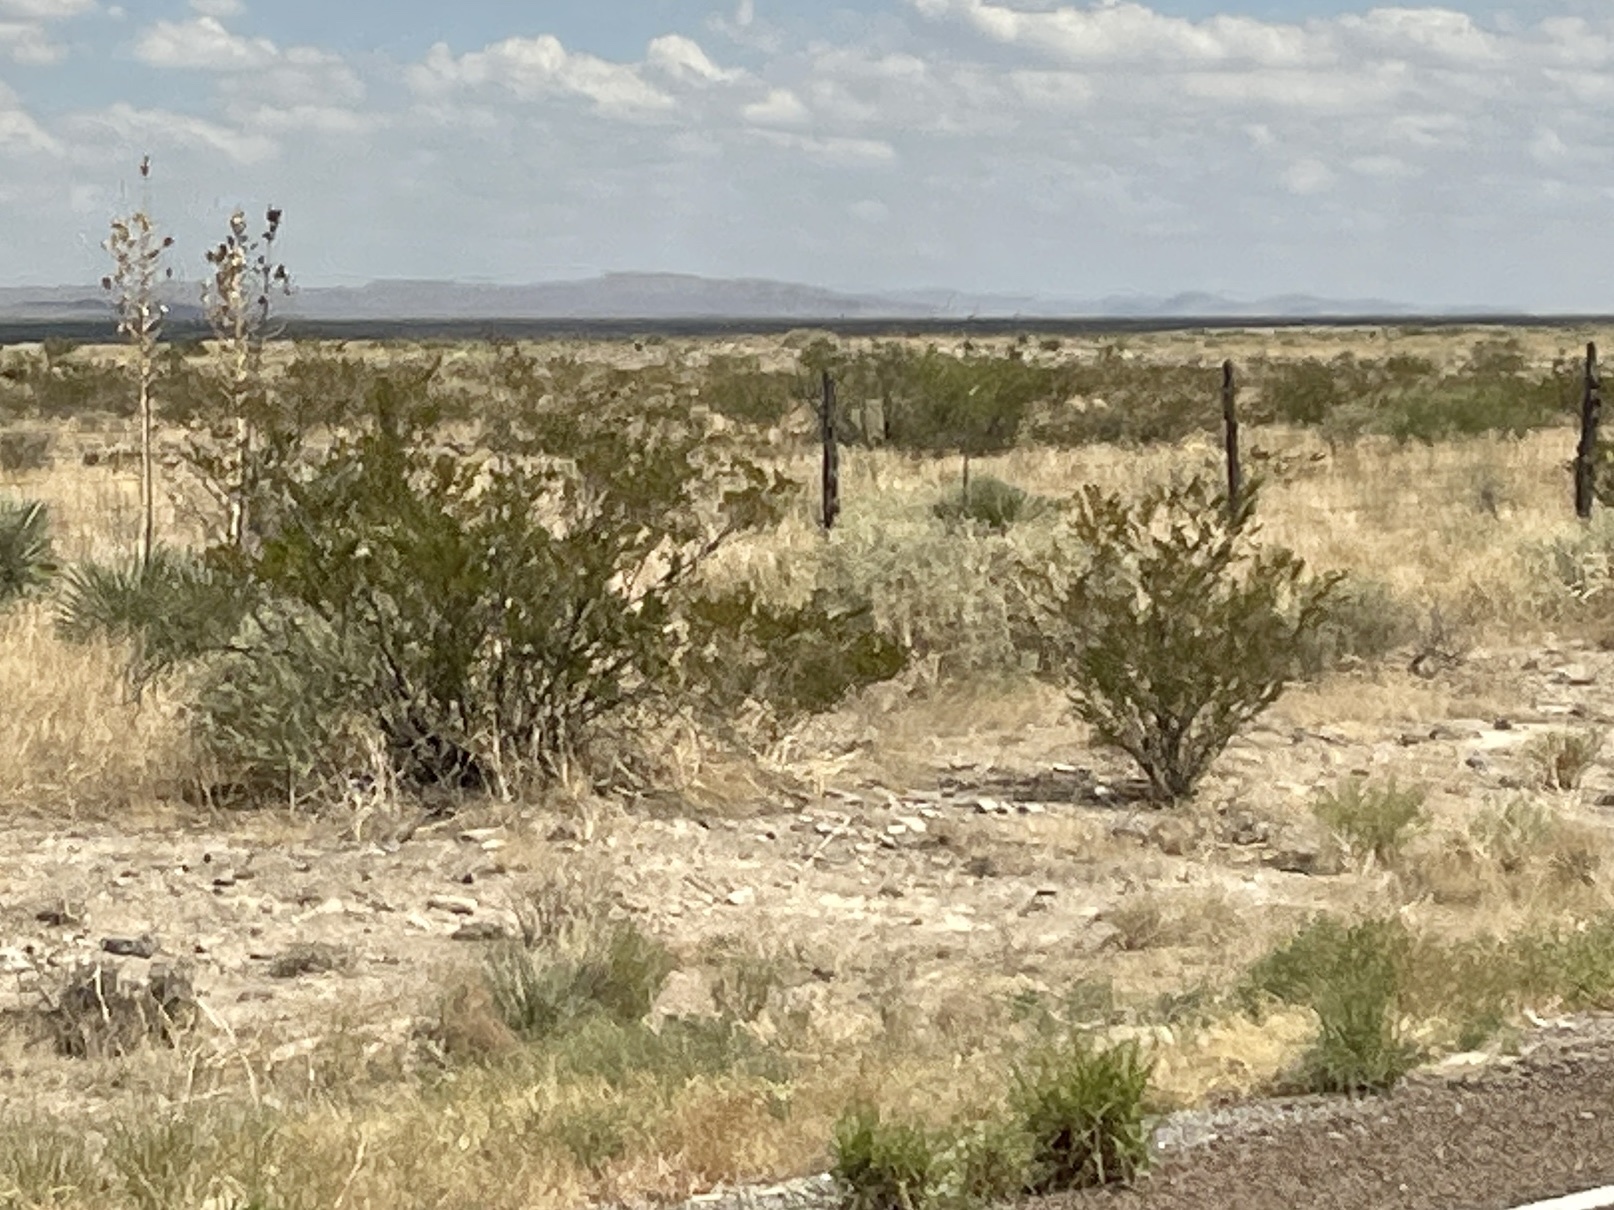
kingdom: Plantae
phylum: Tracheophyta
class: Magnoliopsida
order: Zygophyllales
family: Zygophyllaceae
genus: Larrea
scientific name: Larrea tridentata
